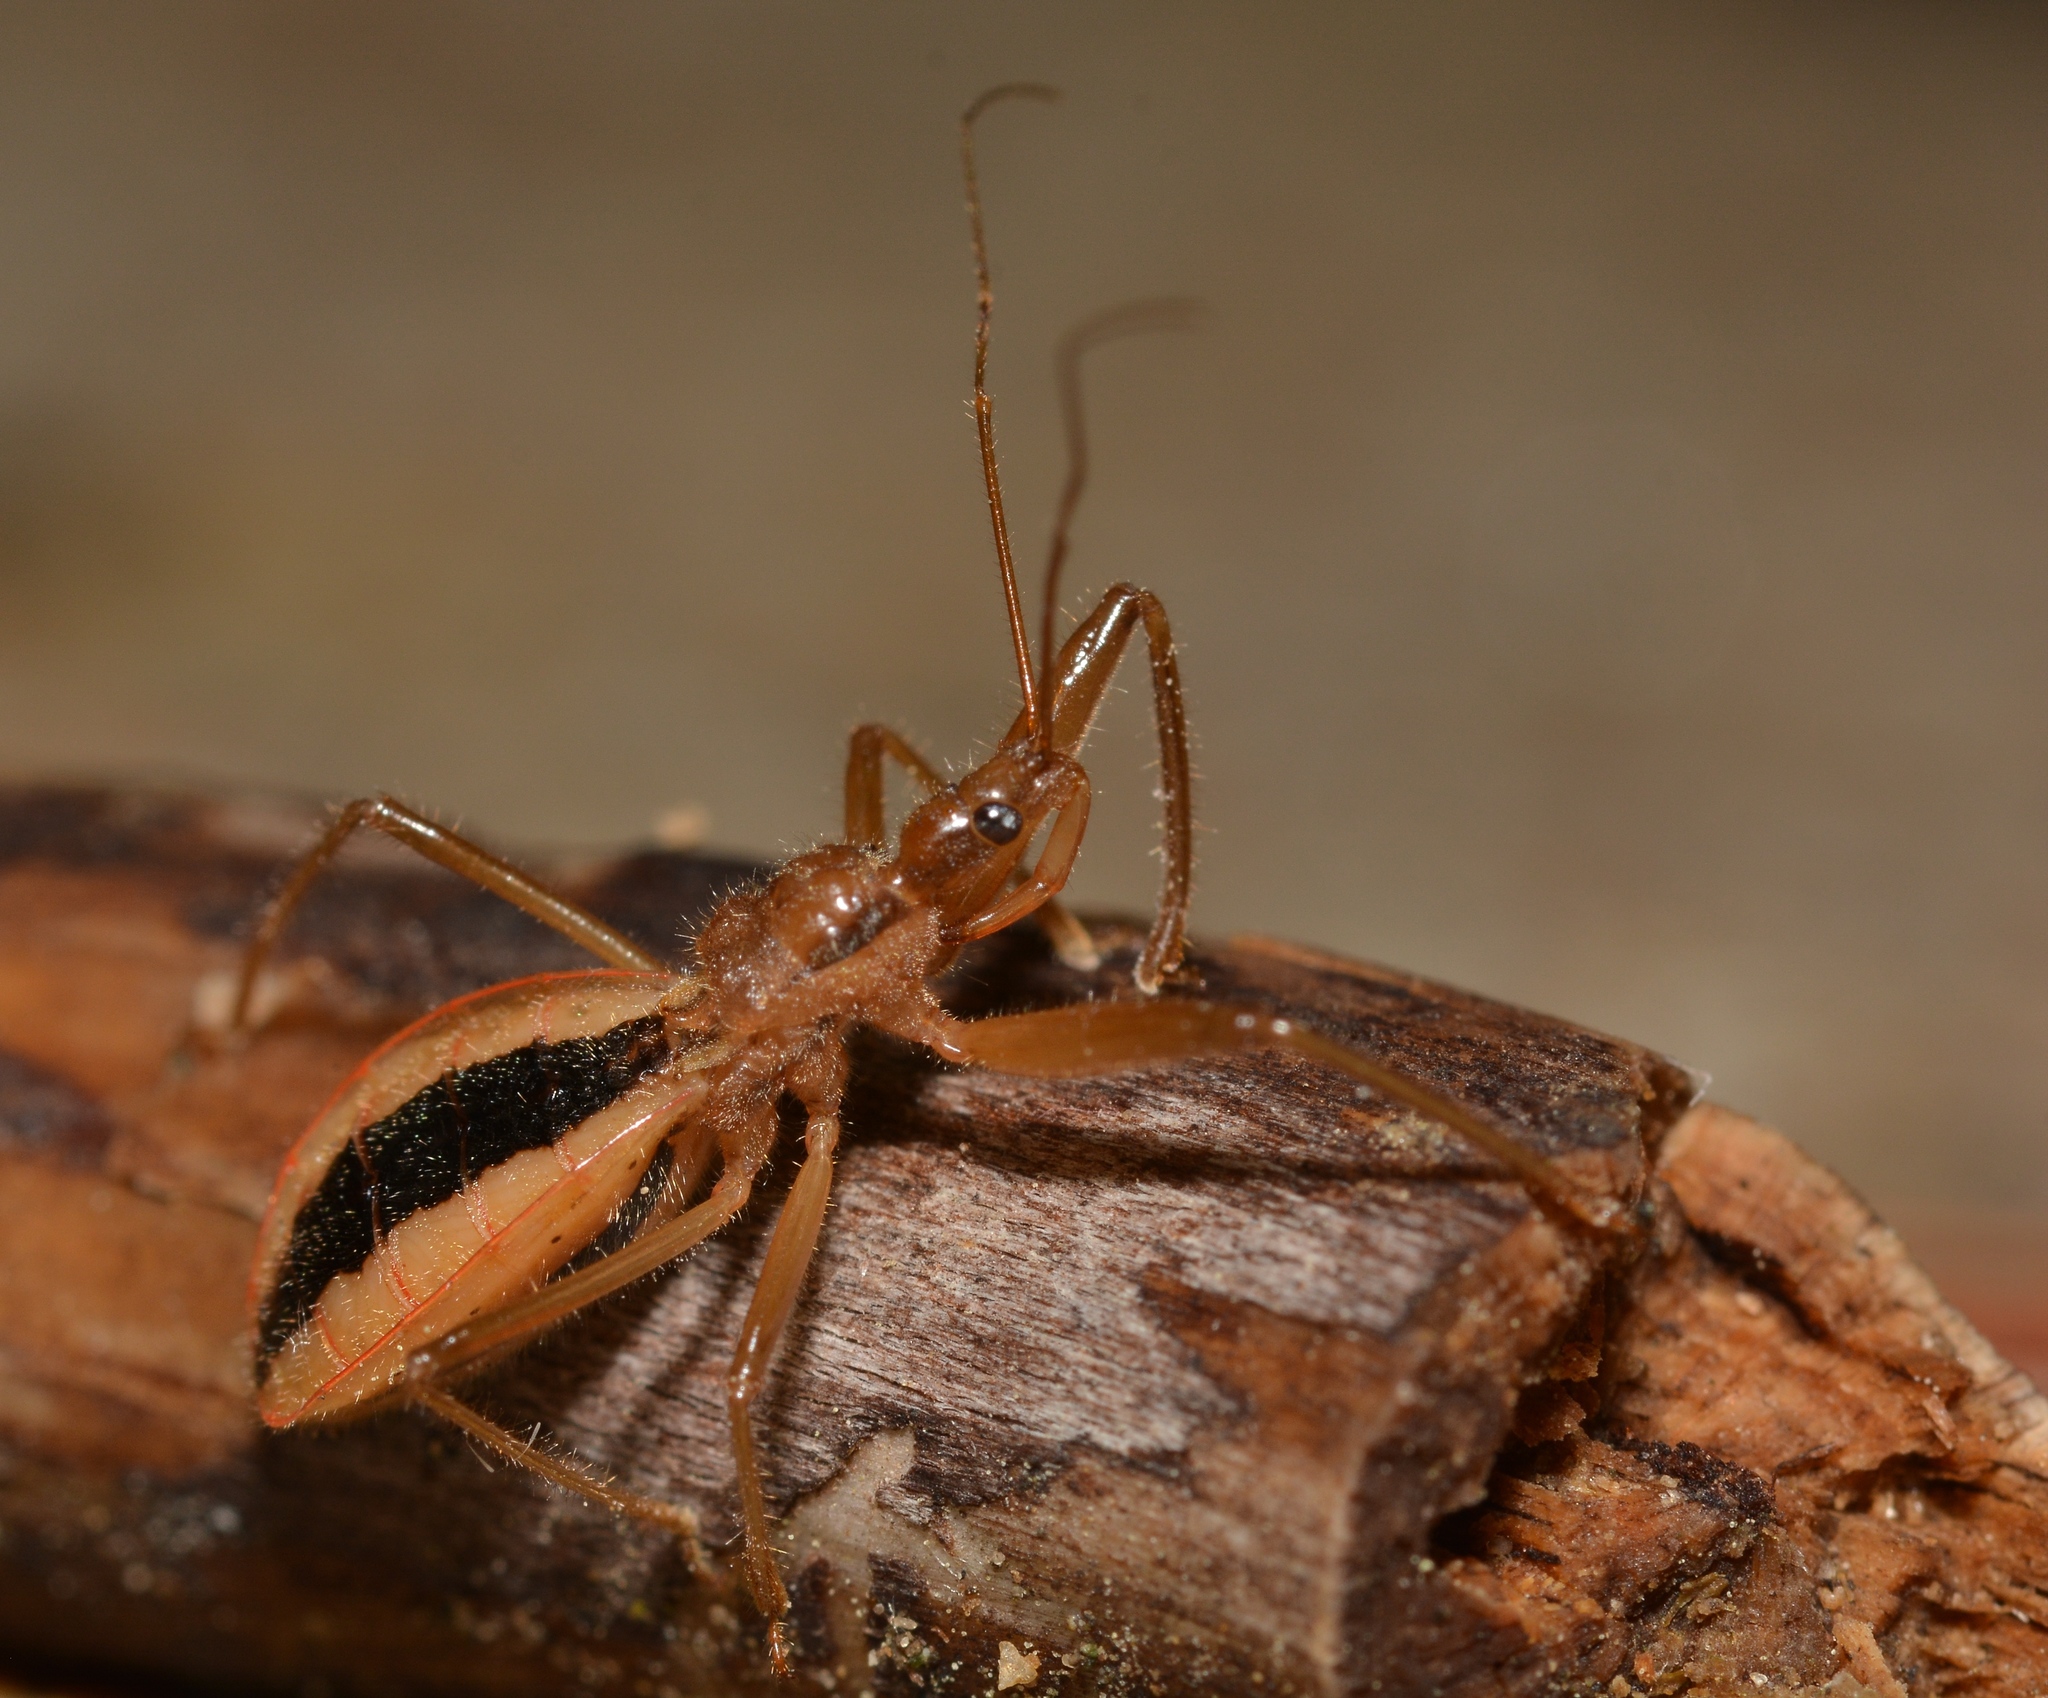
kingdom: Animalia
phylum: Arthropoda
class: Insecta
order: Hemiptera
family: Reduviidae
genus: Fitchia
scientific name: Fitchia aptera
